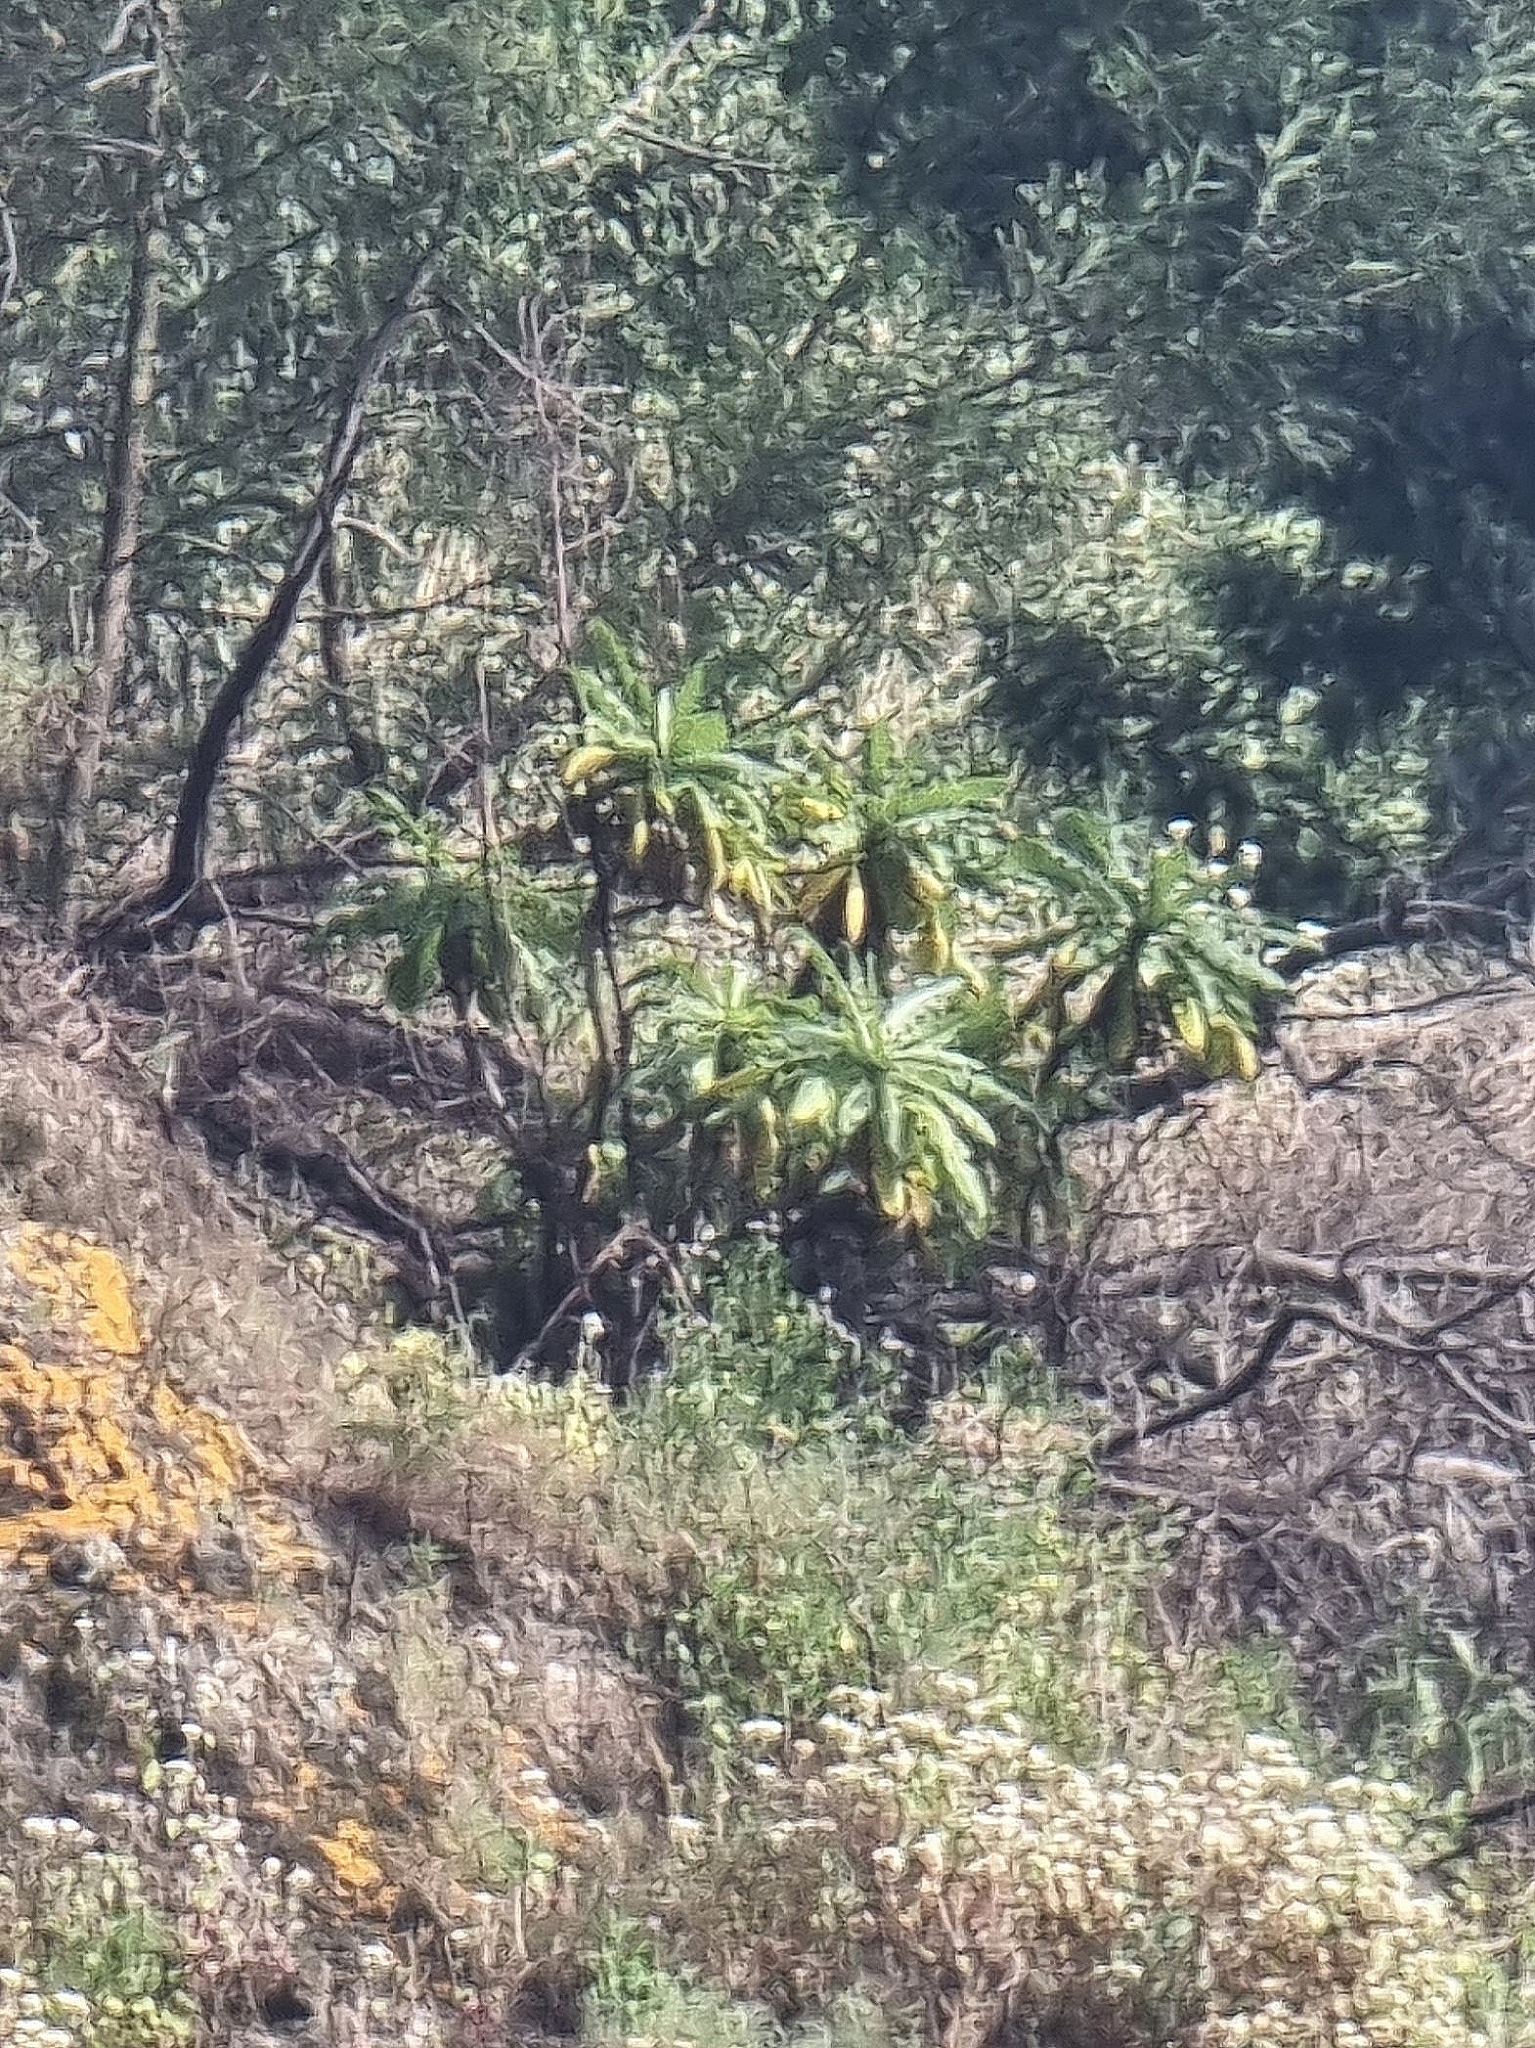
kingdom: Plantae
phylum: Tracheophyta
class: Magnoliopsida
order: Asterales
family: Asteraceae
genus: Sonchus
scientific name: Sonchus fruticosus
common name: Shrubby sow-thistle
